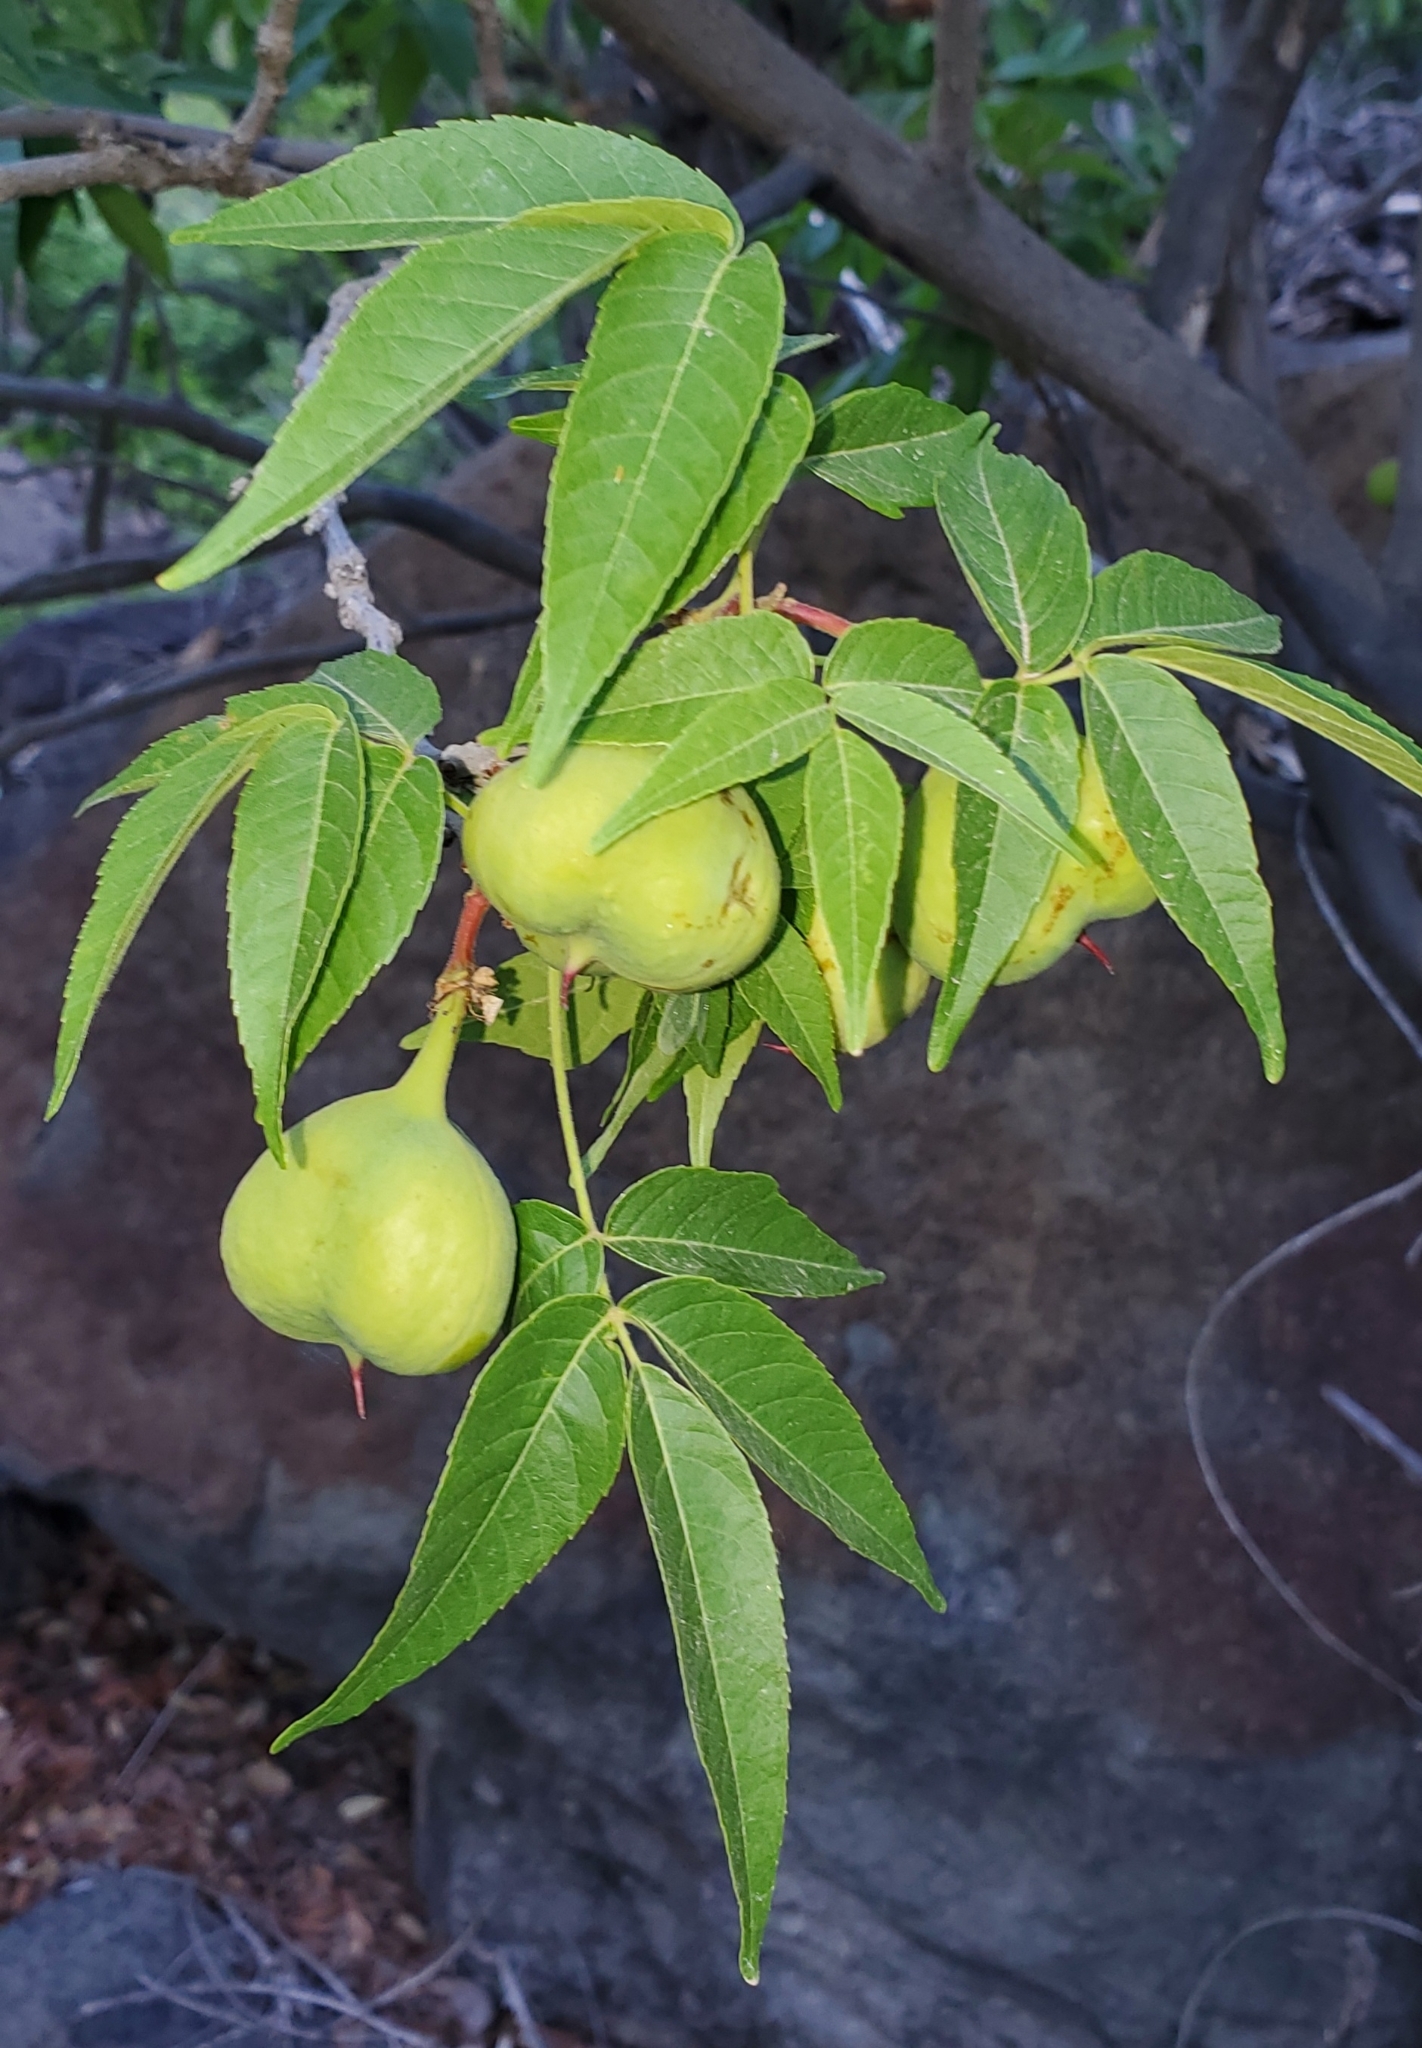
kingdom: Plantae
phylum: Tracheophyta
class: Magnoliopsida
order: Sapindales
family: Sapindaceae
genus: Ungnadia
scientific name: Ungnadia speciosa
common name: Texas-buckeye
